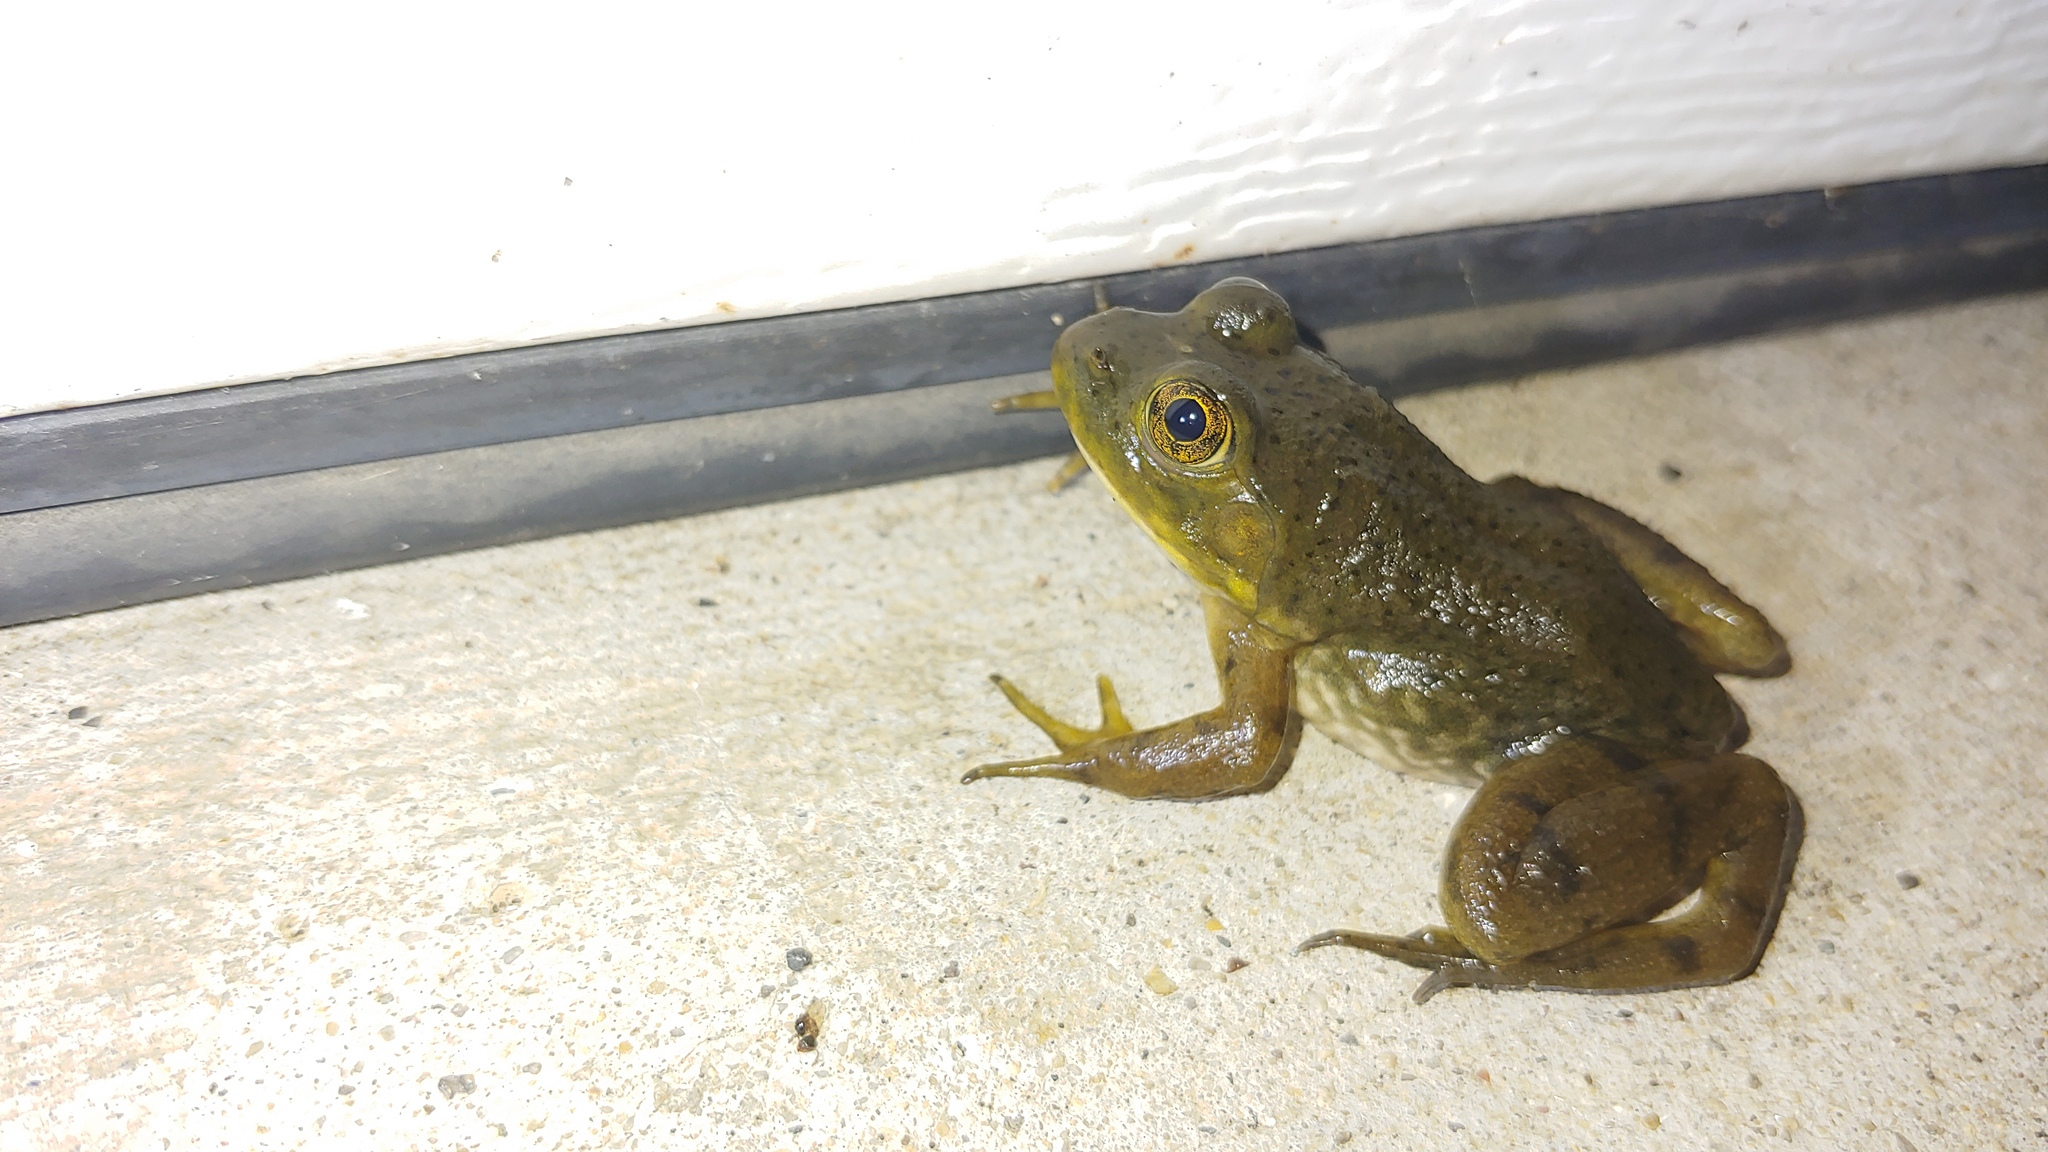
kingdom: Animalia
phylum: Chordata
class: Amphibia
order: Anura
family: Ranidae
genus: Lithobates
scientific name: Lithobates catesbeianus
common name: American bullfrog
